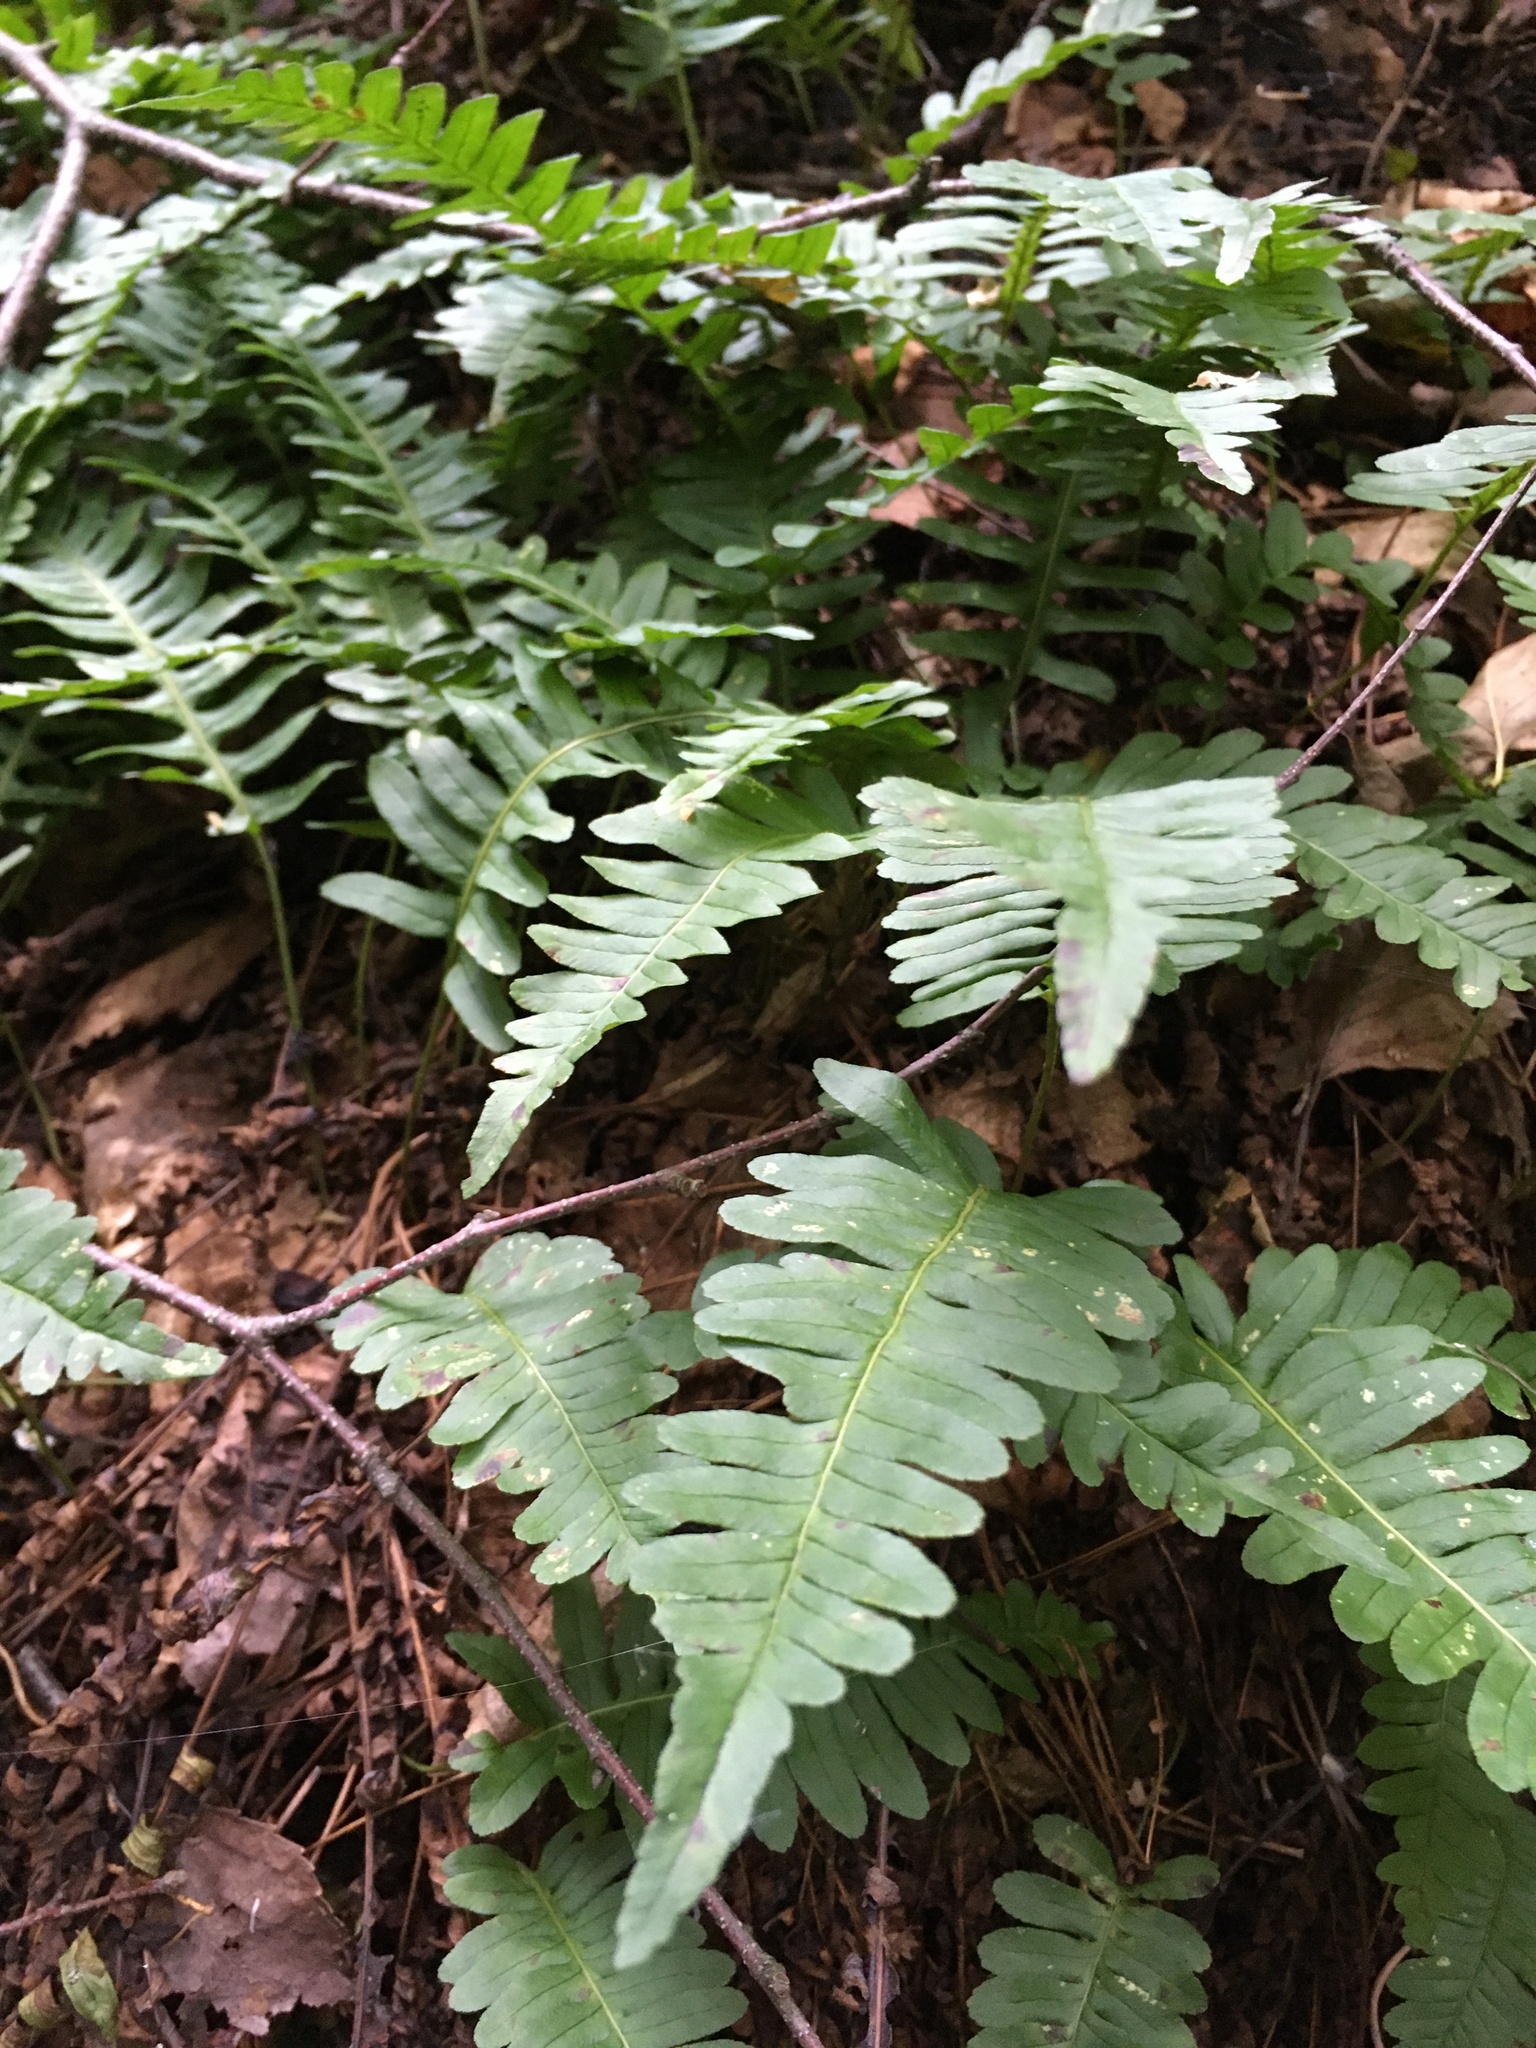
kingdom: Plantae
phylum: Tracheophyta
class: Polypodiopsida
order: Polypodiales
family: Polypodiaceae
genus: Polypodium
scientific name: Polypodium virginianum
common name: American wall fern
